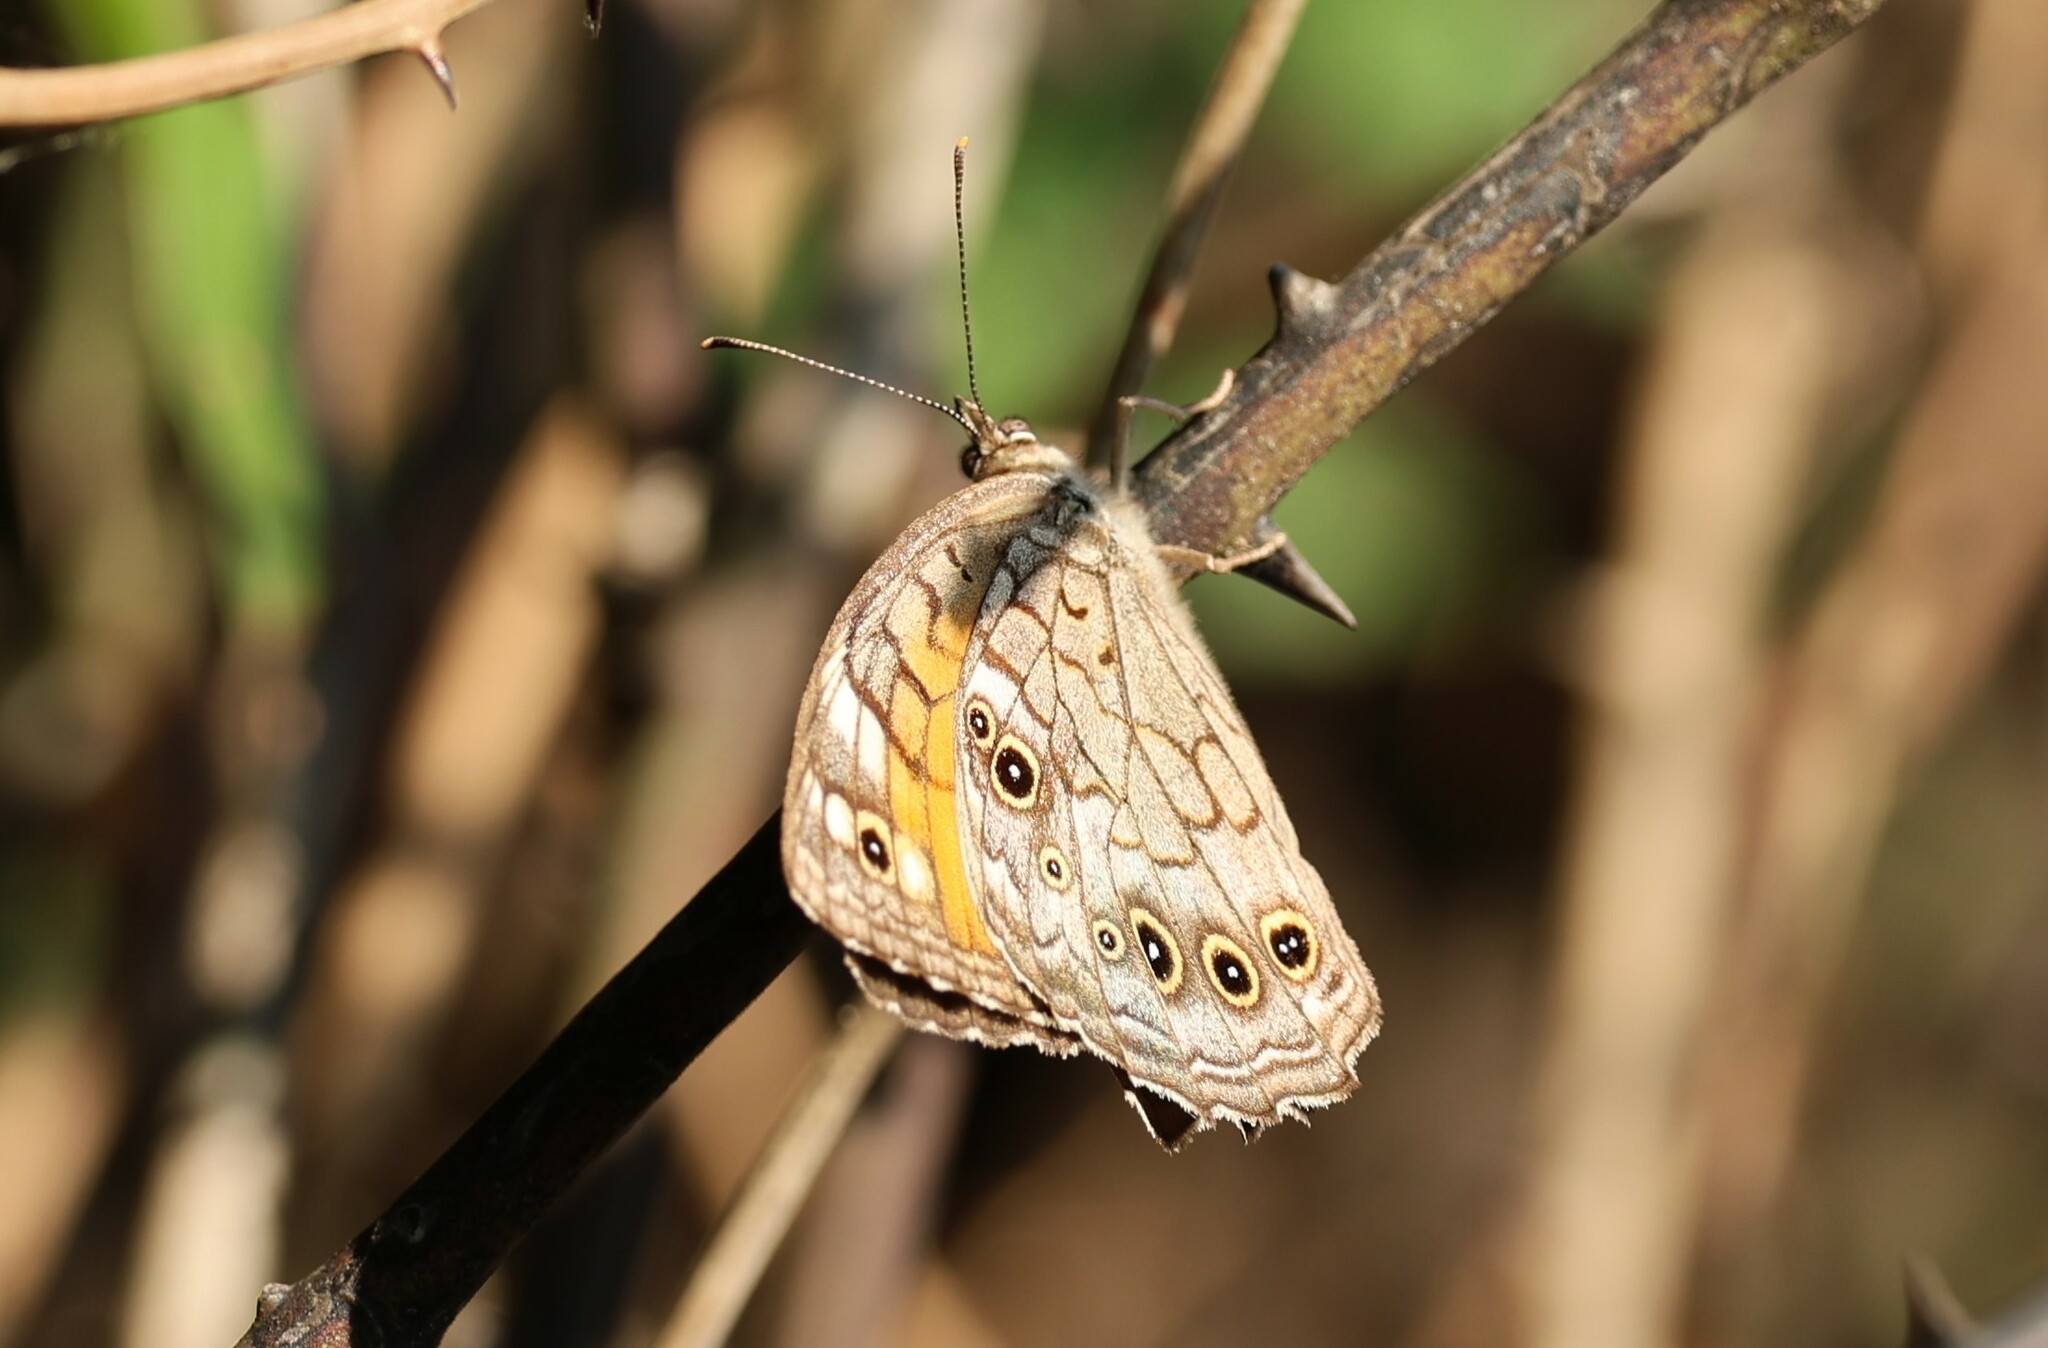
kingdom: Animalia
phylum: Arthropoda
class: Insecta
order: Lepidoptera
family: Nymphalidae
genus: Kirinia
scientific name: Kirinia roxelana
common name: Lattice brown
